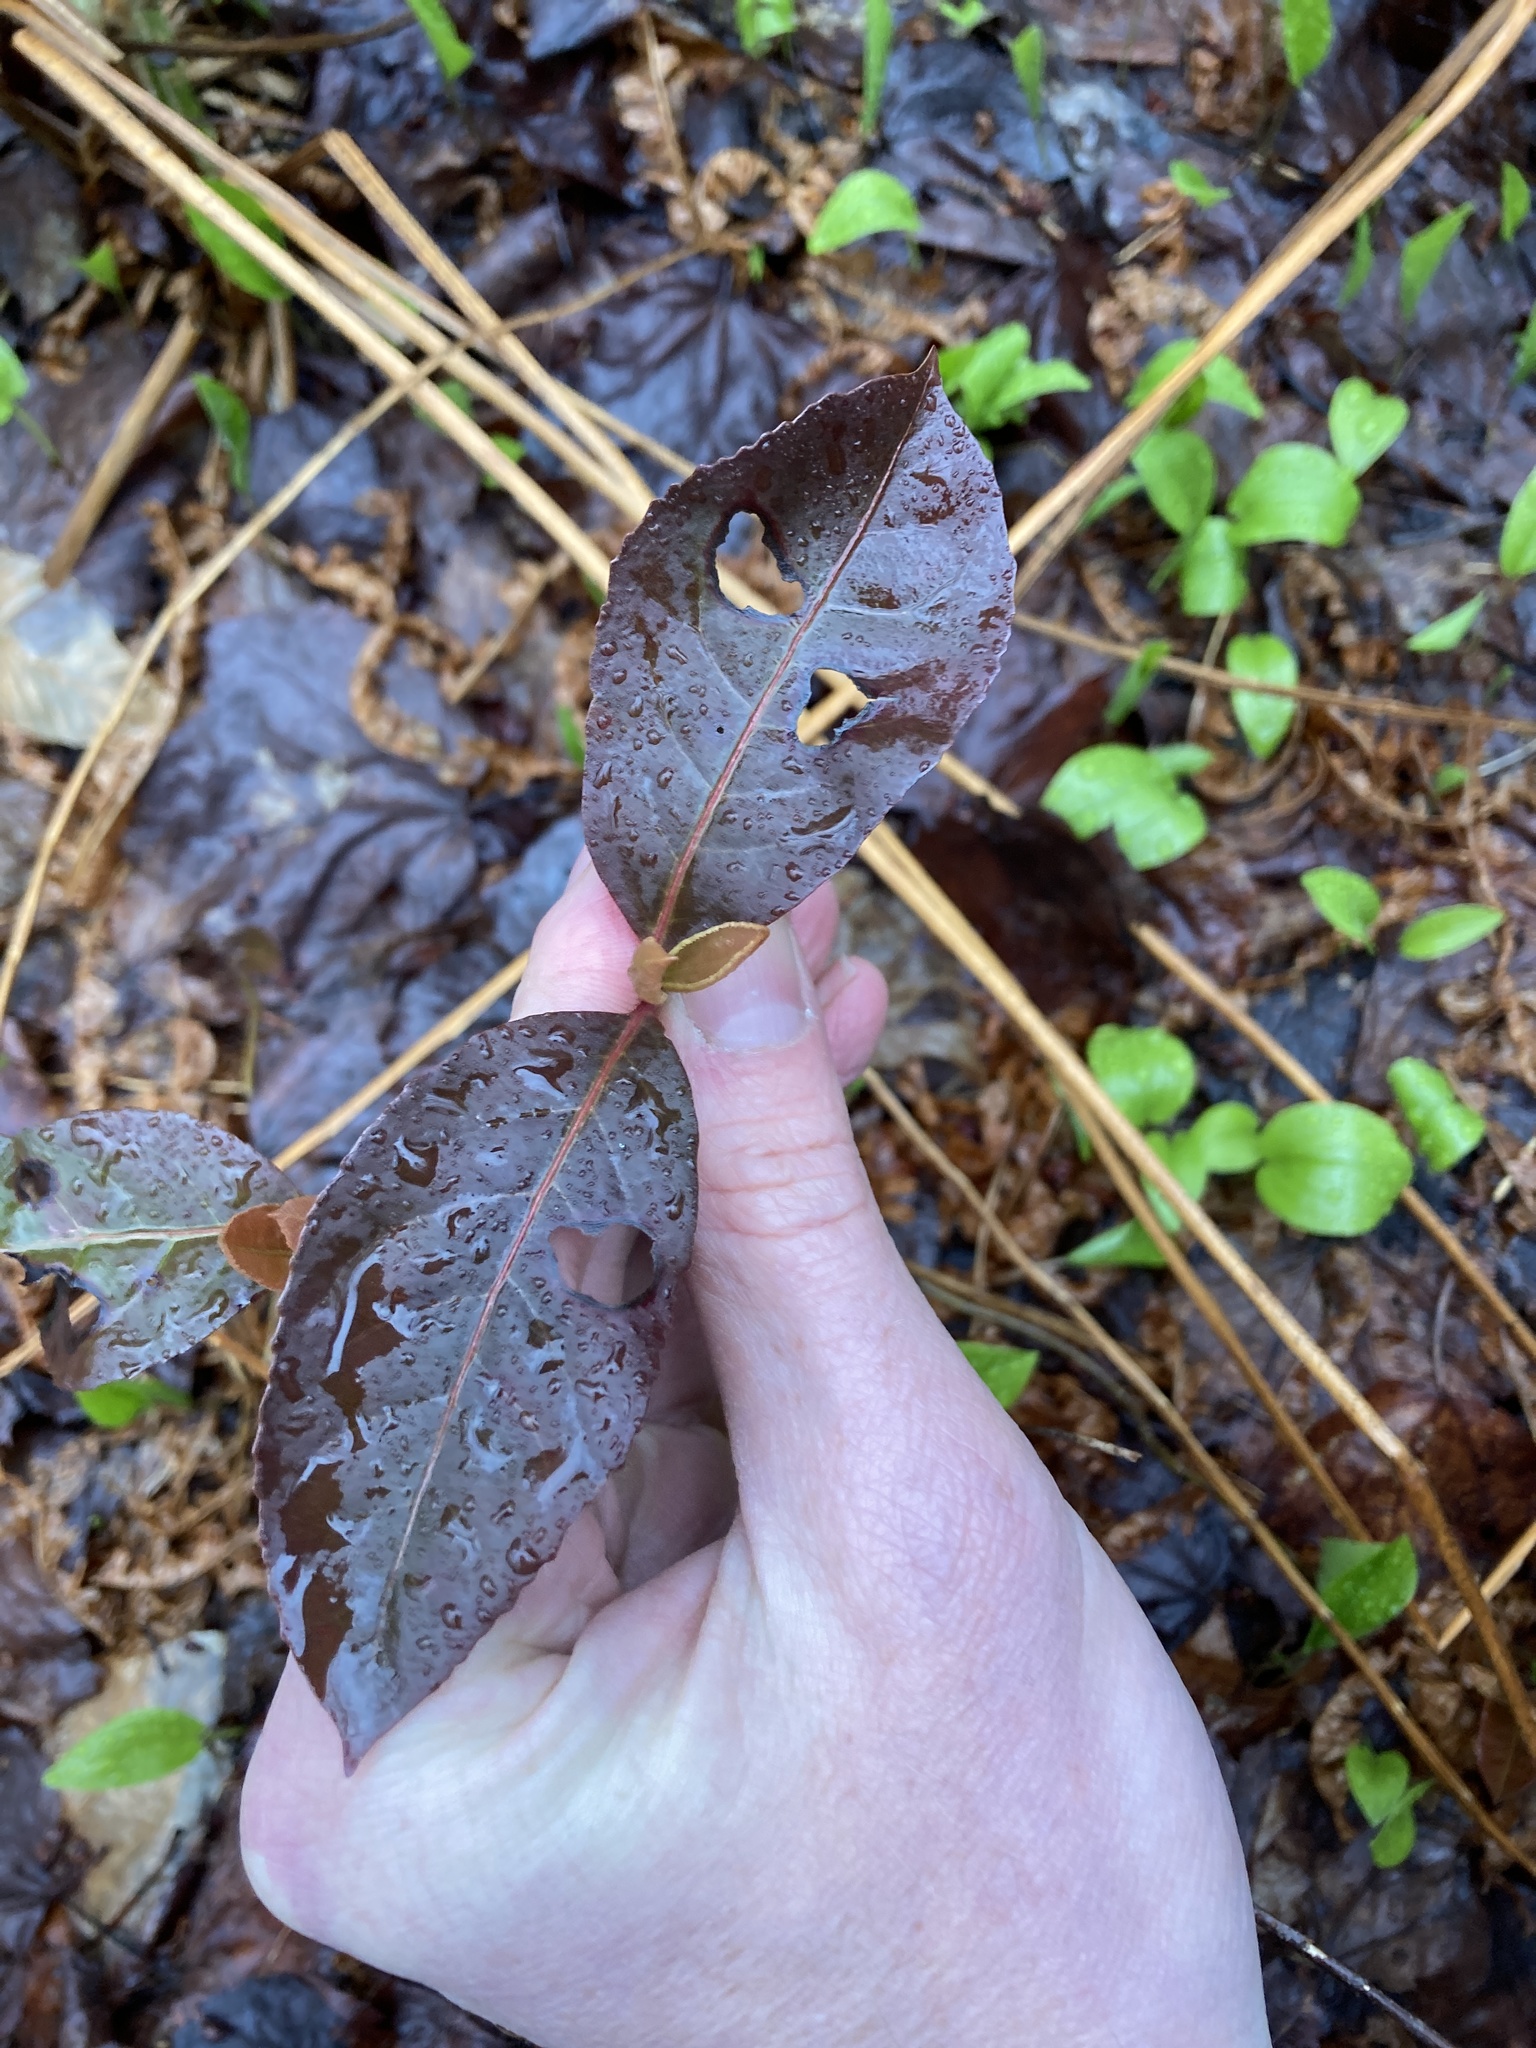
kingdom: Plantae
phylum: Tracheophyta
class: Magnoliopsida
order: Dipsacales
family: Viburnaceae
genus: Viburnum
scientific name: Viburnum cassinoides
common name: Swamp haw
